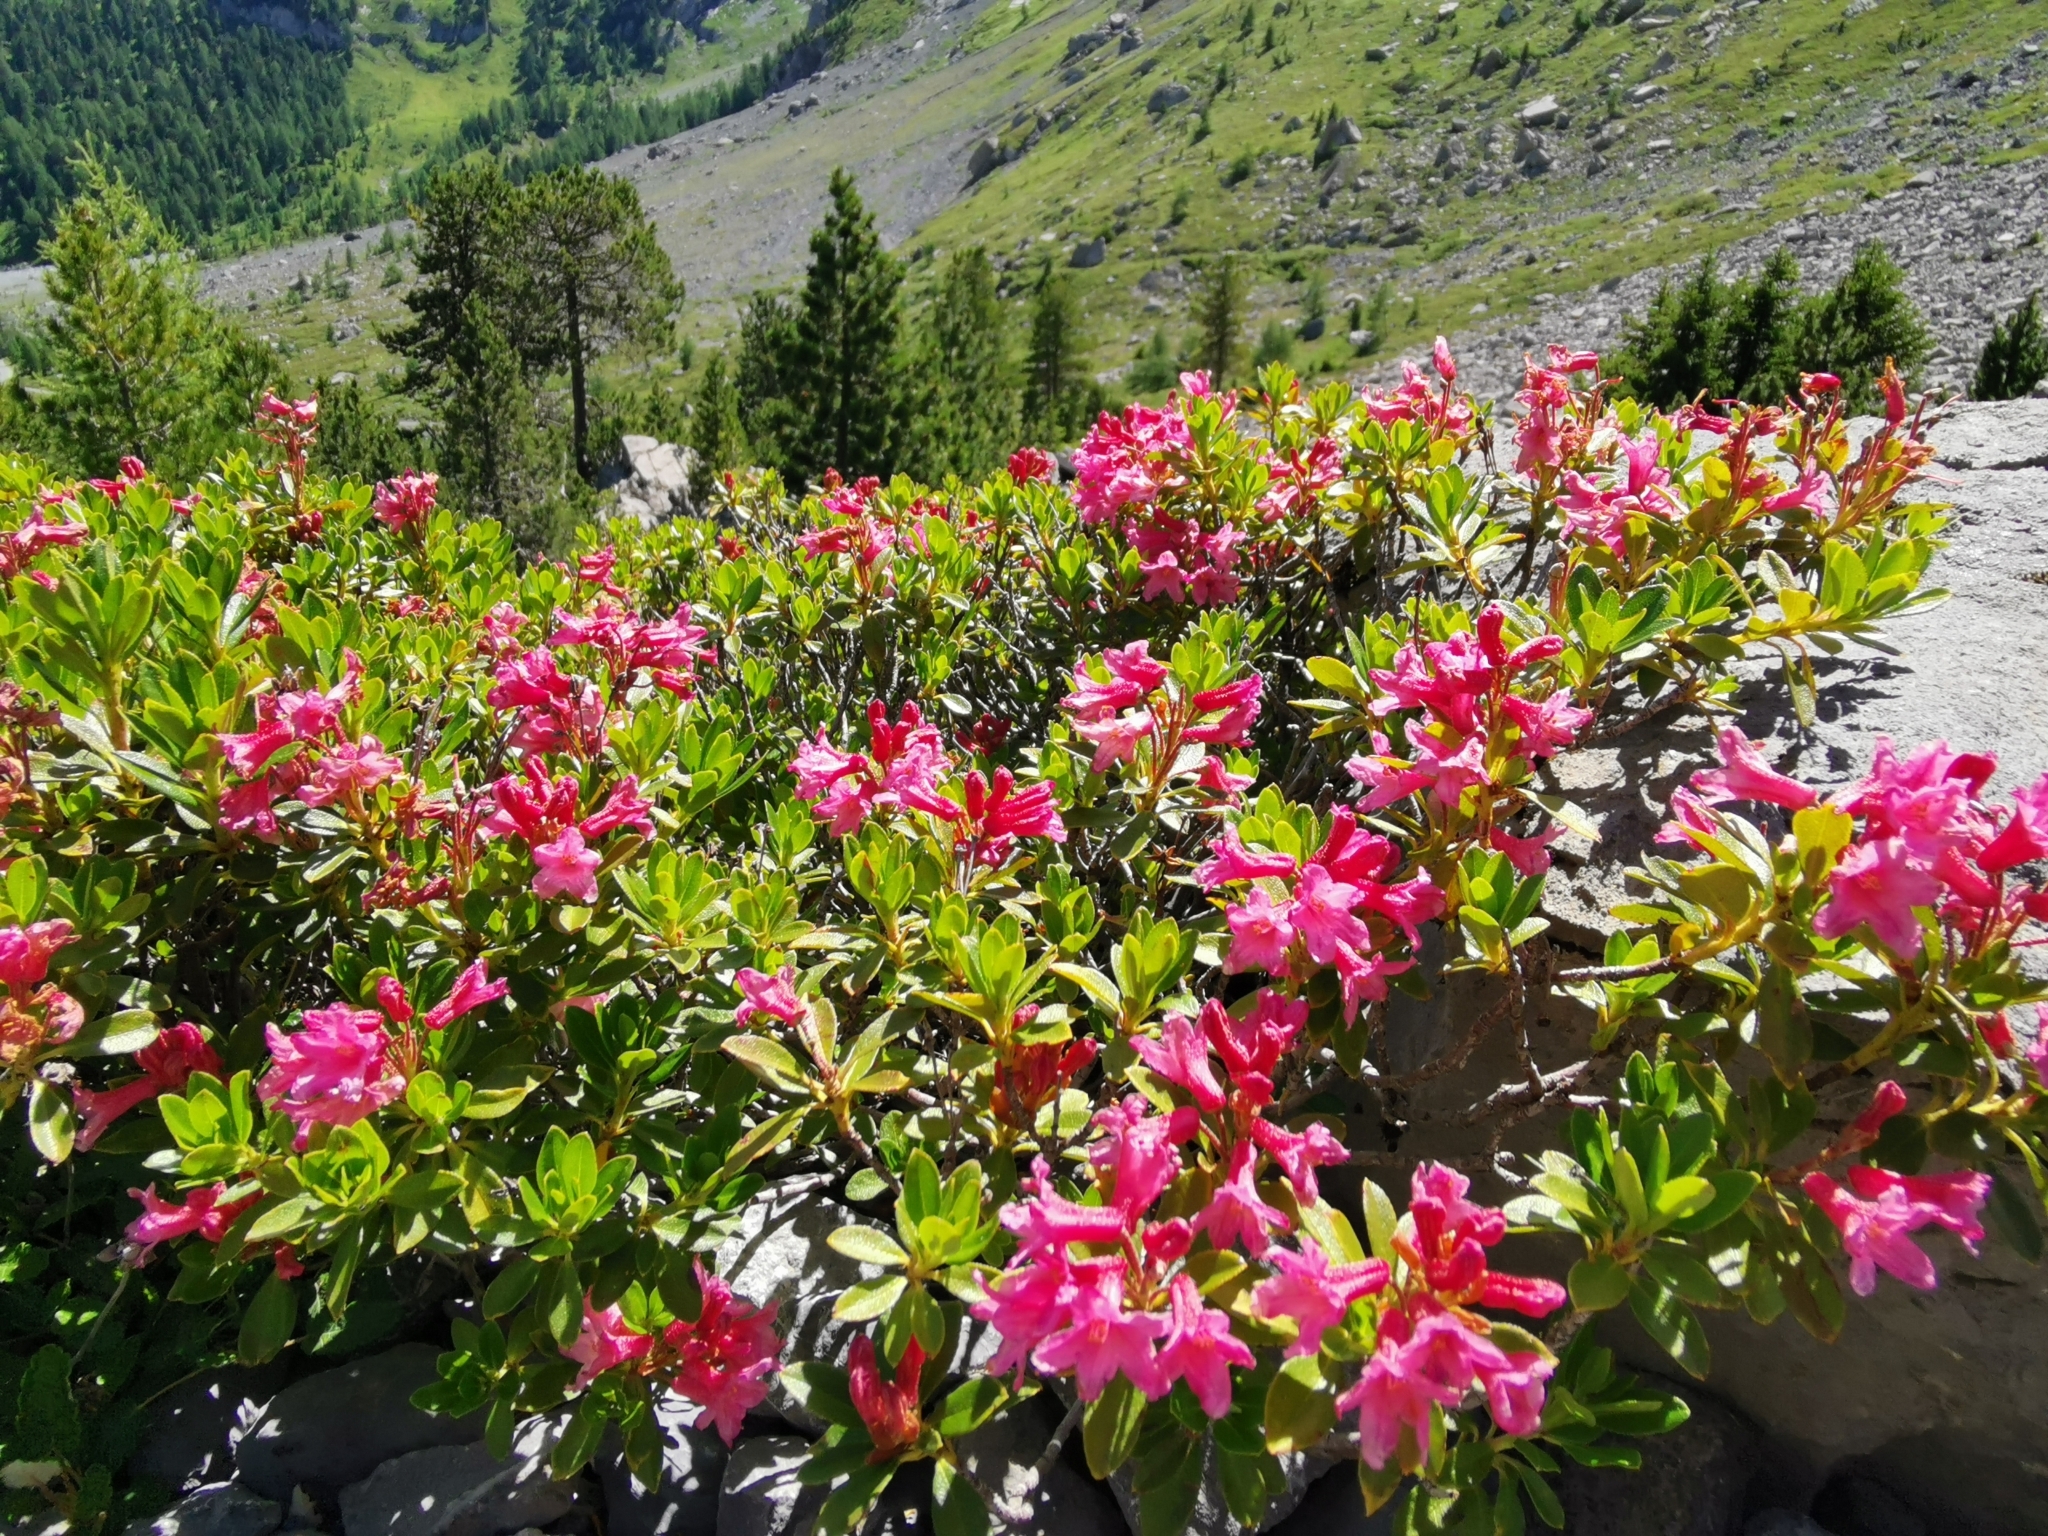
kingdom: Plantae
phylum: Tracheophyta
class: Magnoliopsida
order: Ericales
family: Ericaceae
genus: Rhododendron
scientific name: Rhododendron ferrugineum
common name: Alpenrose
